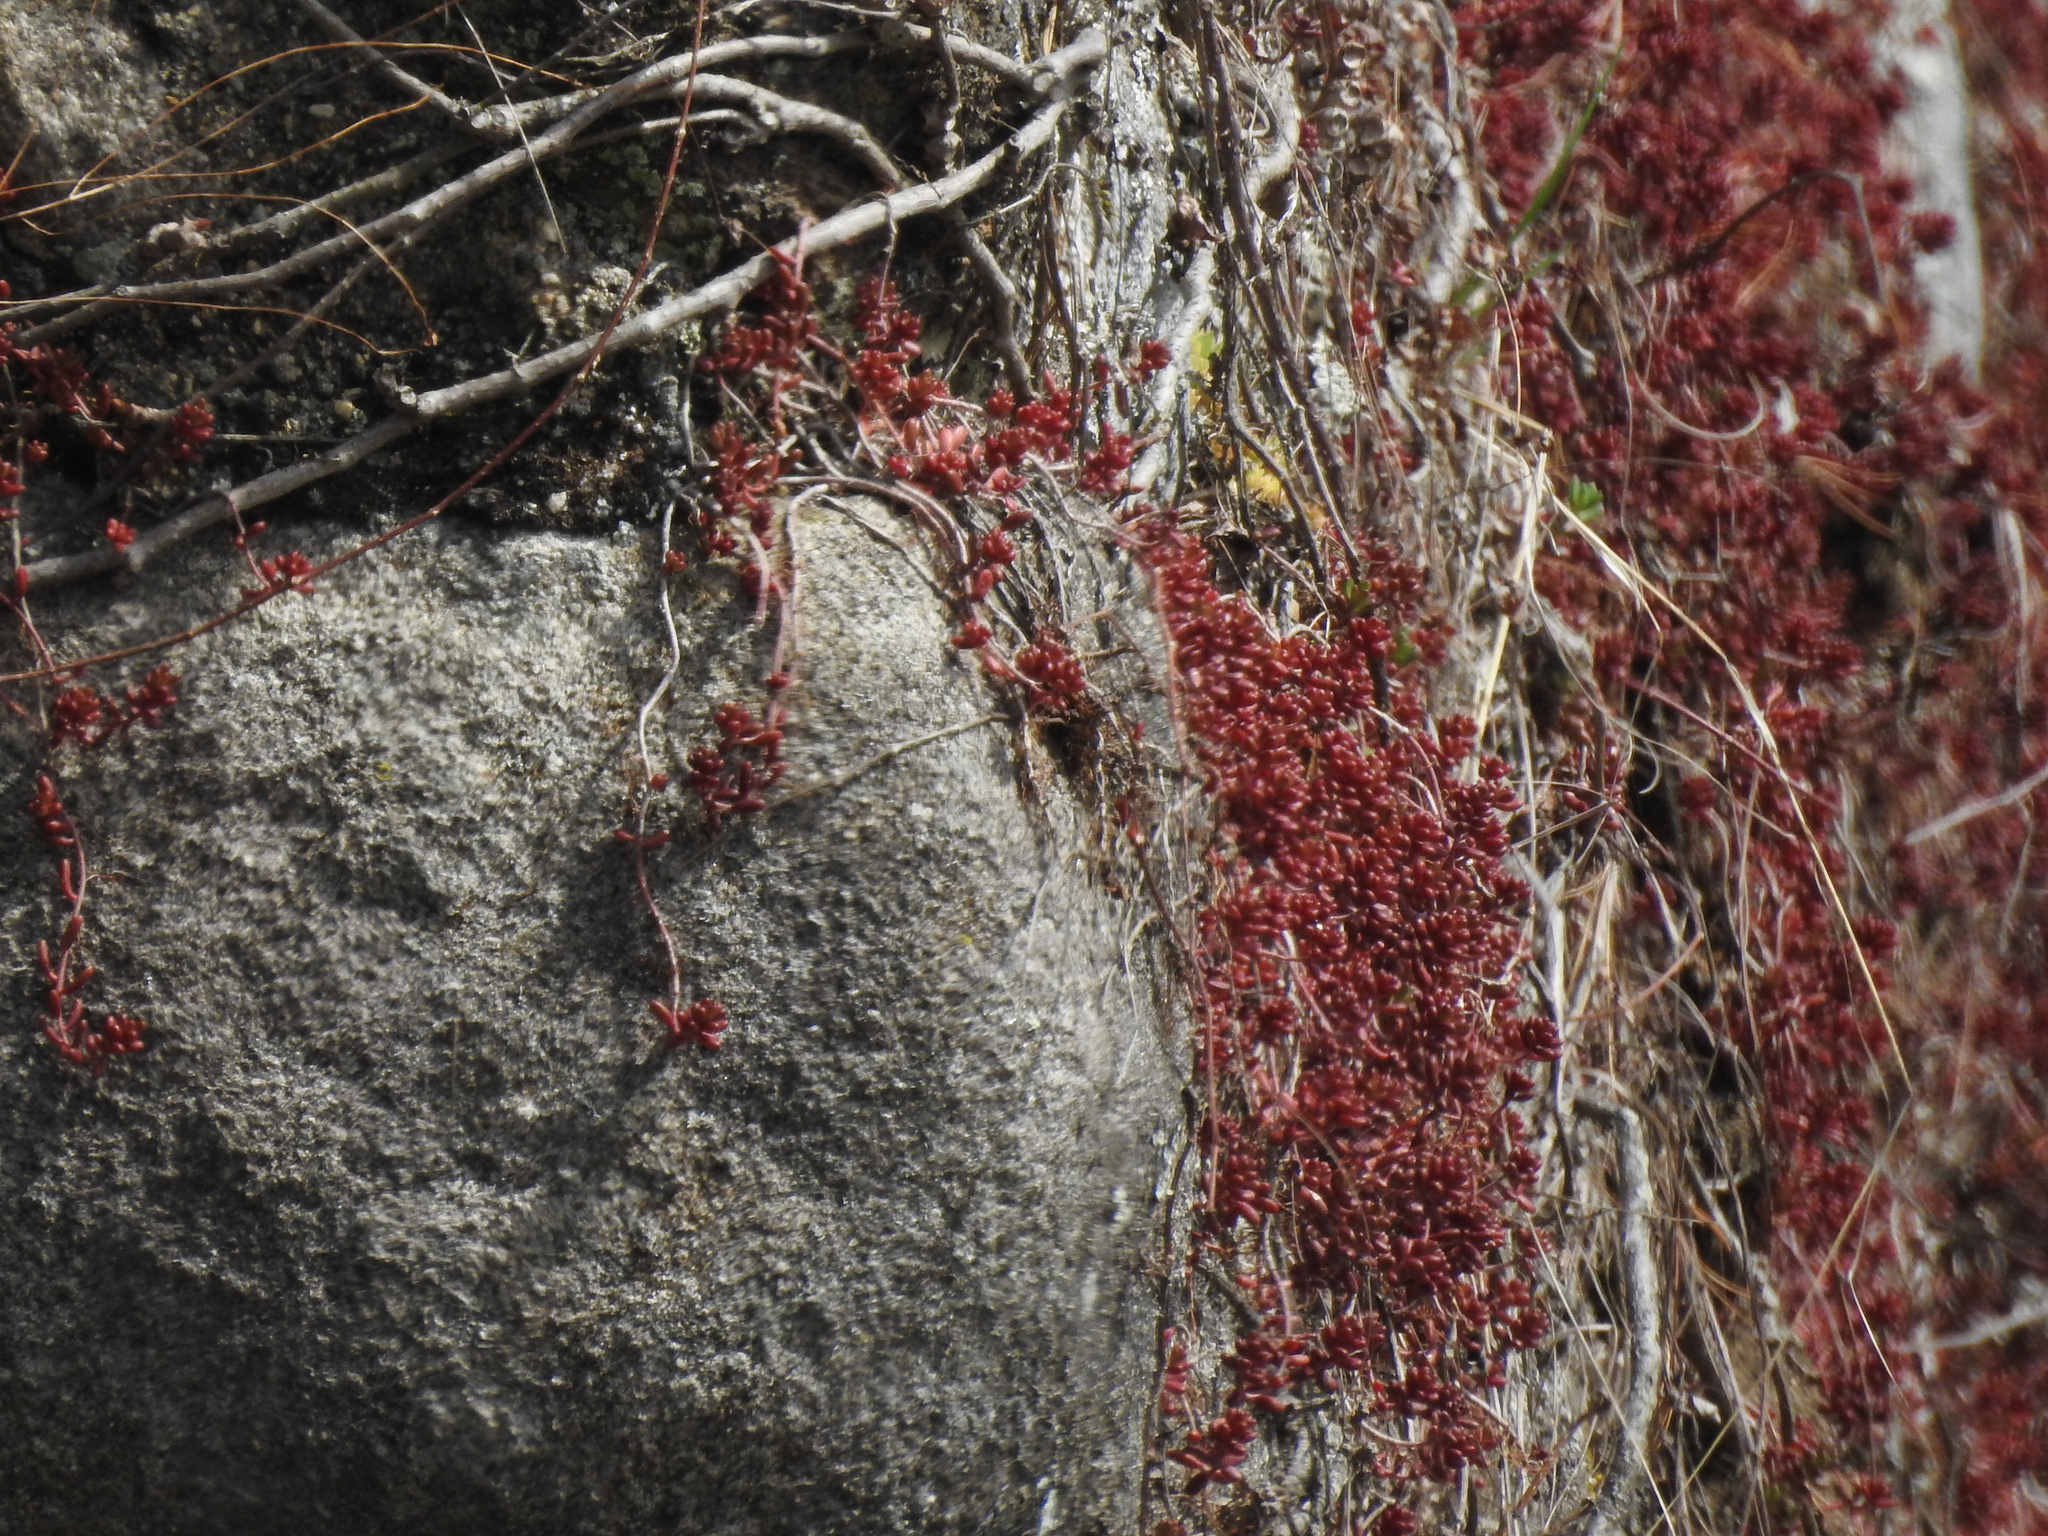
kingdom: Plantae
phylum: Tracheophyta
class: Magnoliopsida
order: Saxifragales
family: Crassulaceae
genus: Sedum
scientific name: Sedum album
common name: White stonecrop
